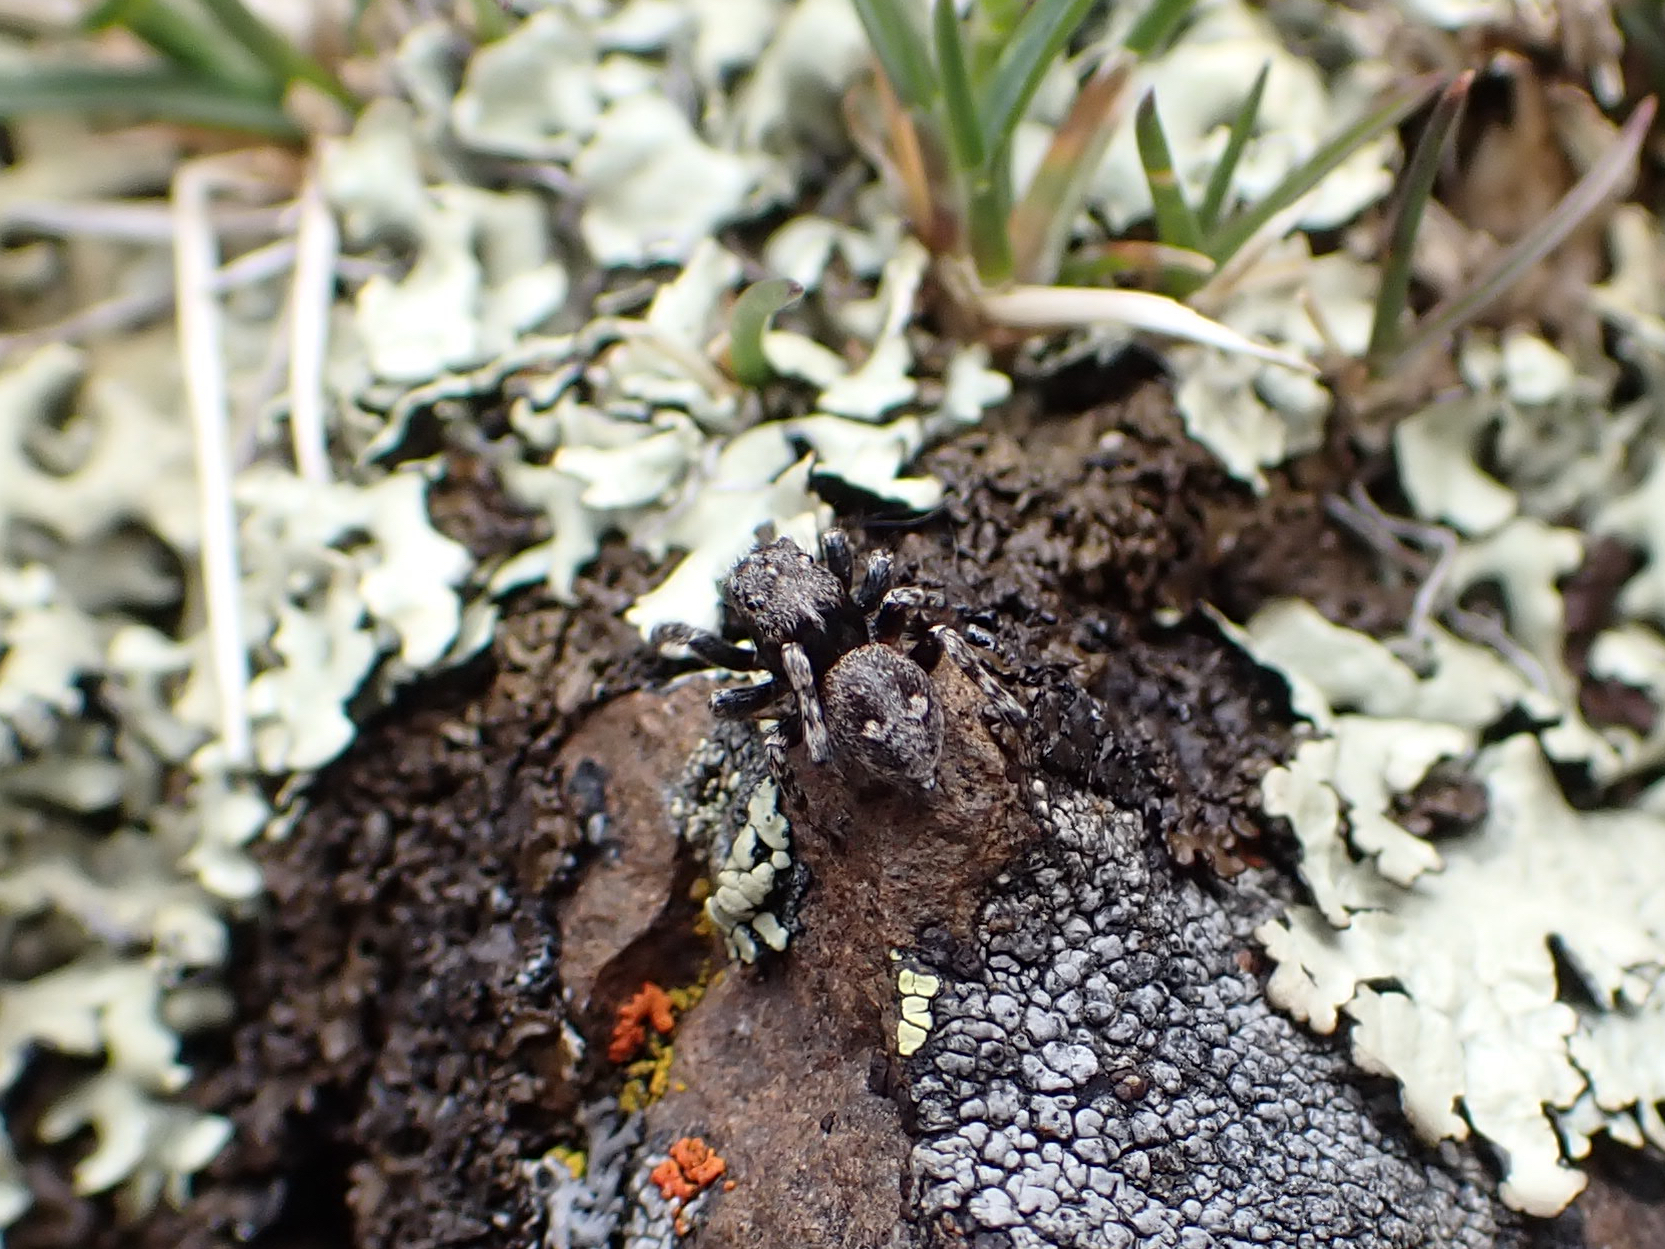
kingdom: Animalia
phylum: Arthropoda
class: Arachnida
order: Araneae
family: Salticidae
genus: Sittisax
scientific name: Sittisax ranieri
